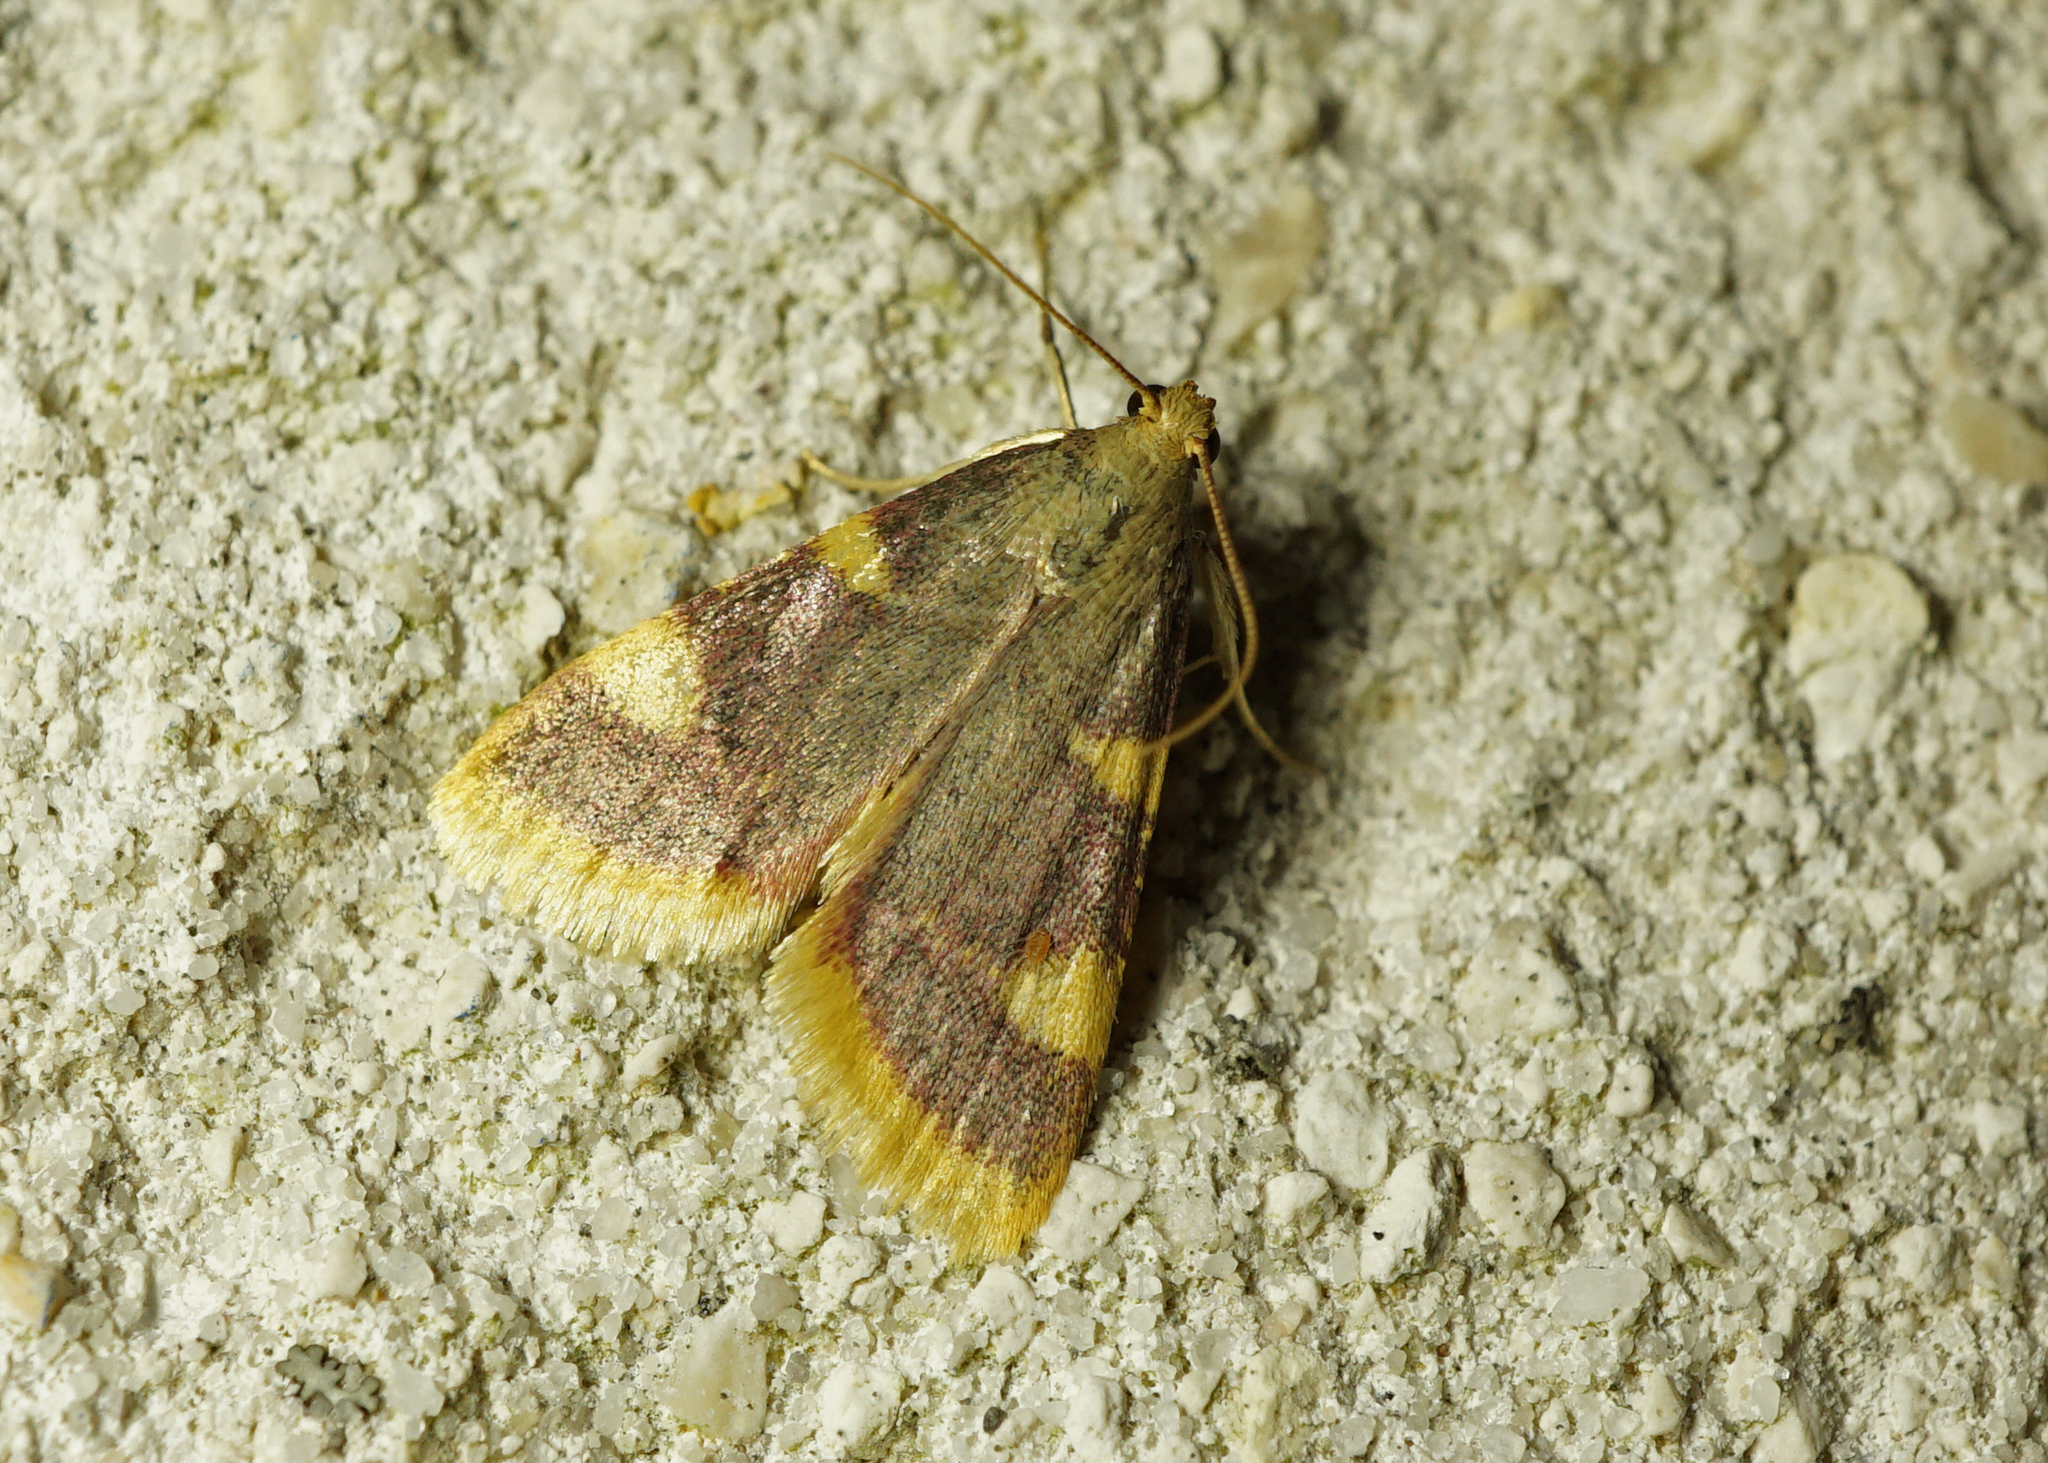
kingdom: Animalia
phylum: Arthropoda
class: Insecta
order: Lepidoptera
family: Pyralidae
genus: Hypsopygia
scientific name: Hypsopygia costalis
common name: Gold triangle
